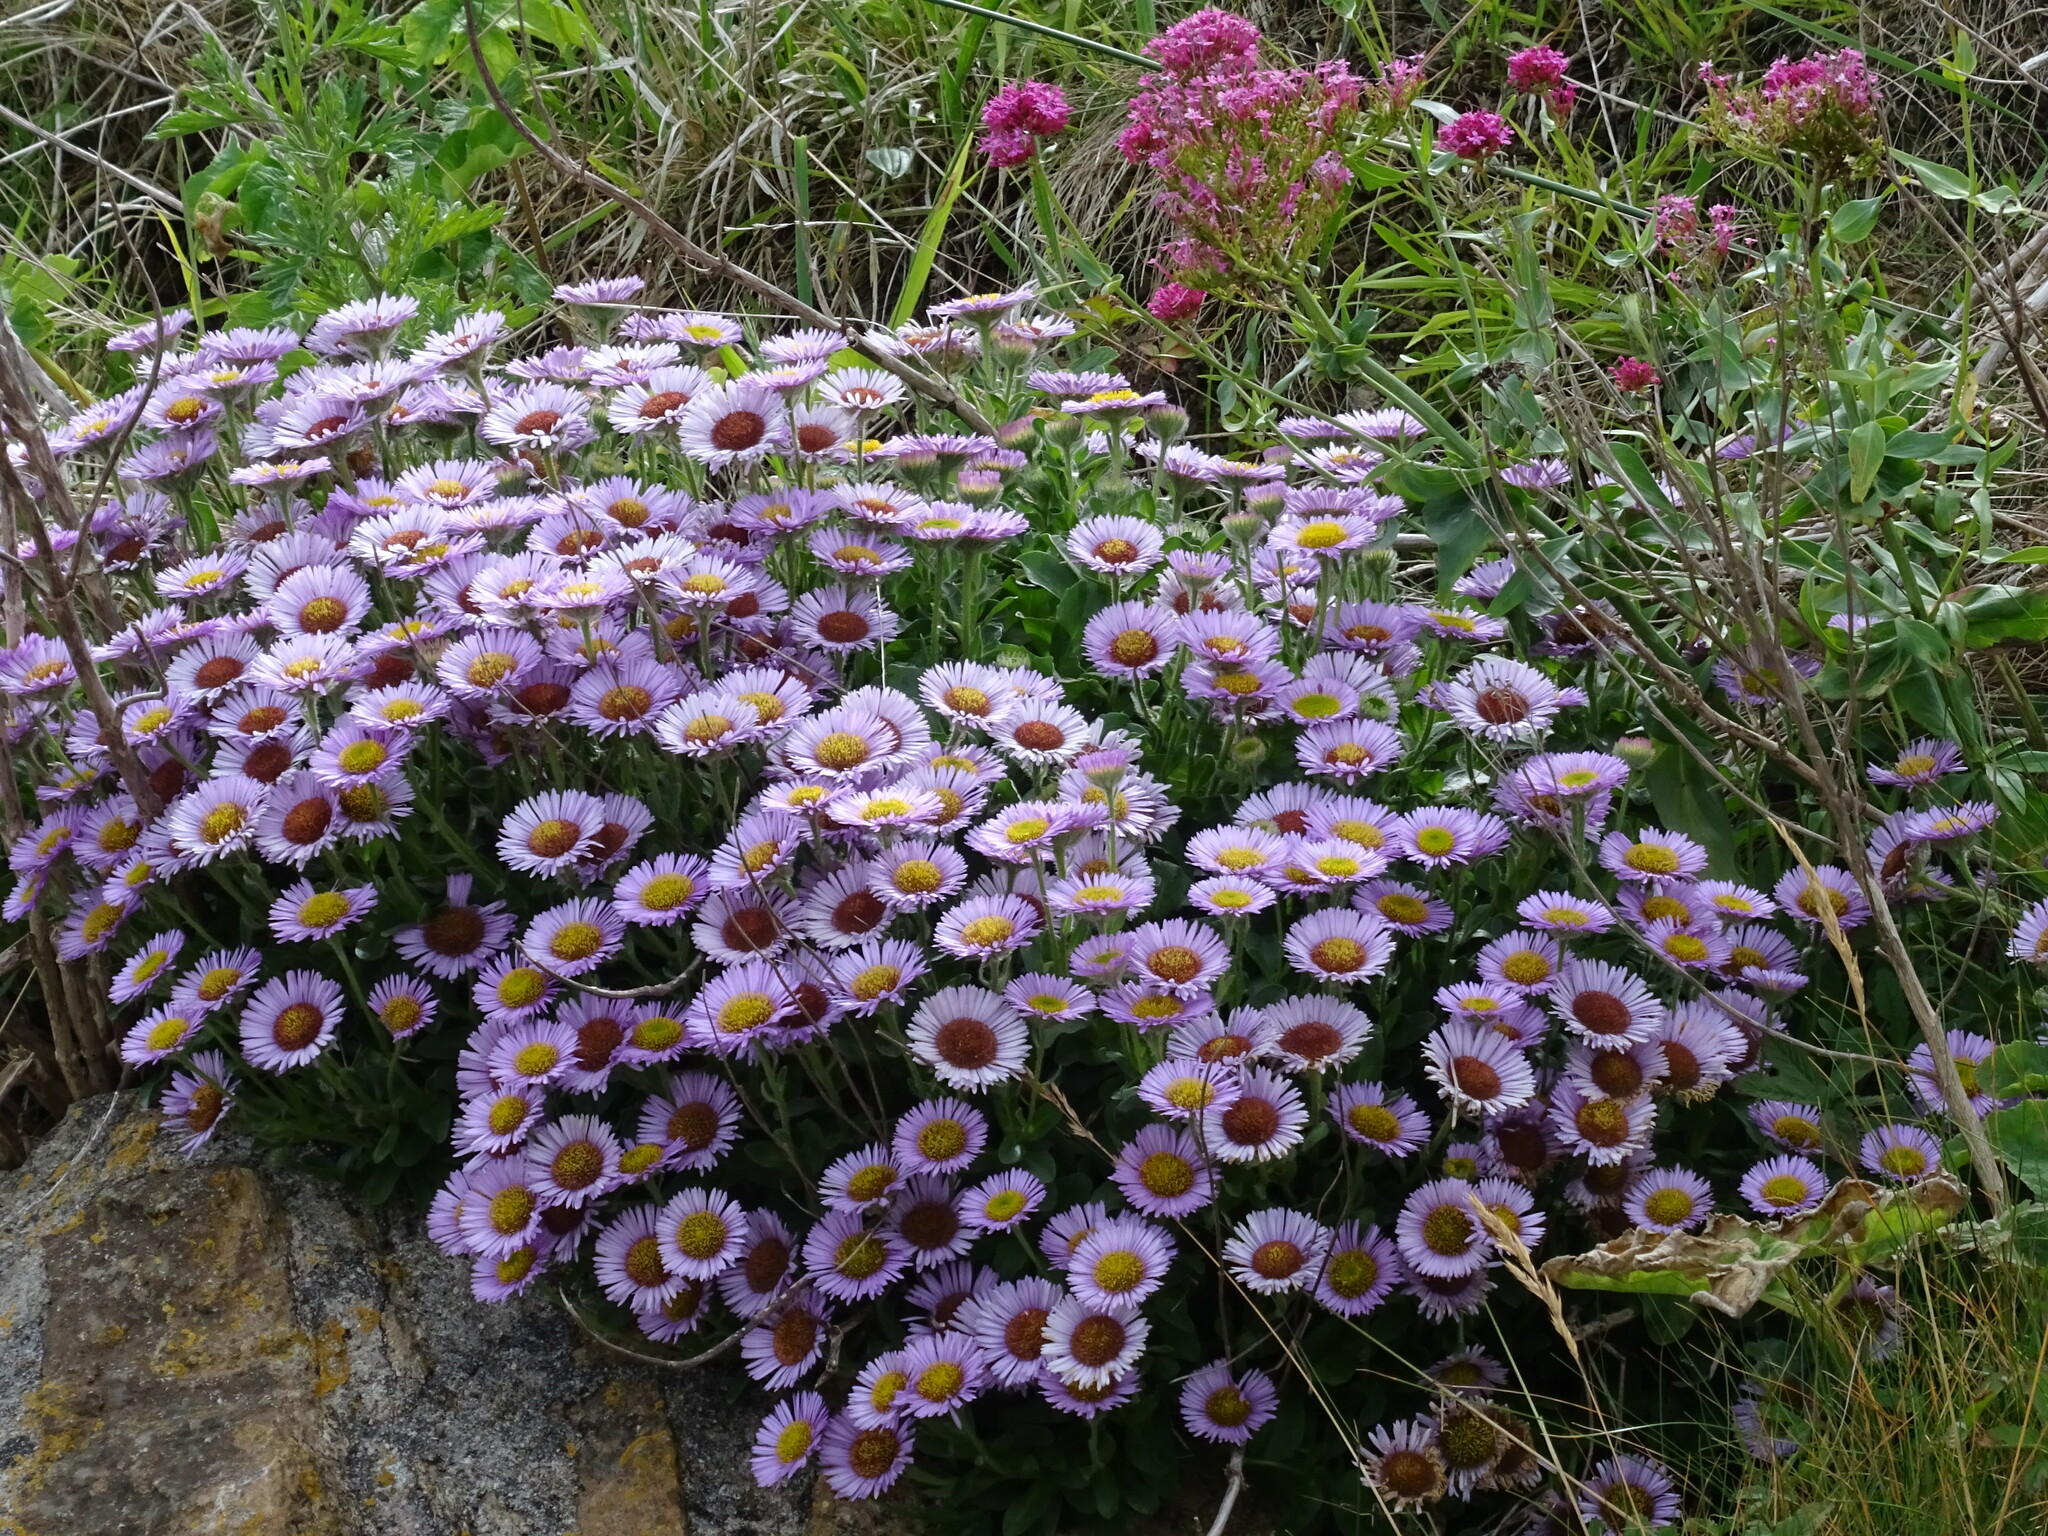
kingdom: Plantae
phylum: Tracheophyta
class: Magnoliopsida
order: Asterales
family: Asteraceae
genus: Erigeron
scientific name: Erigeron glaucus
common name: Seaside daisy
